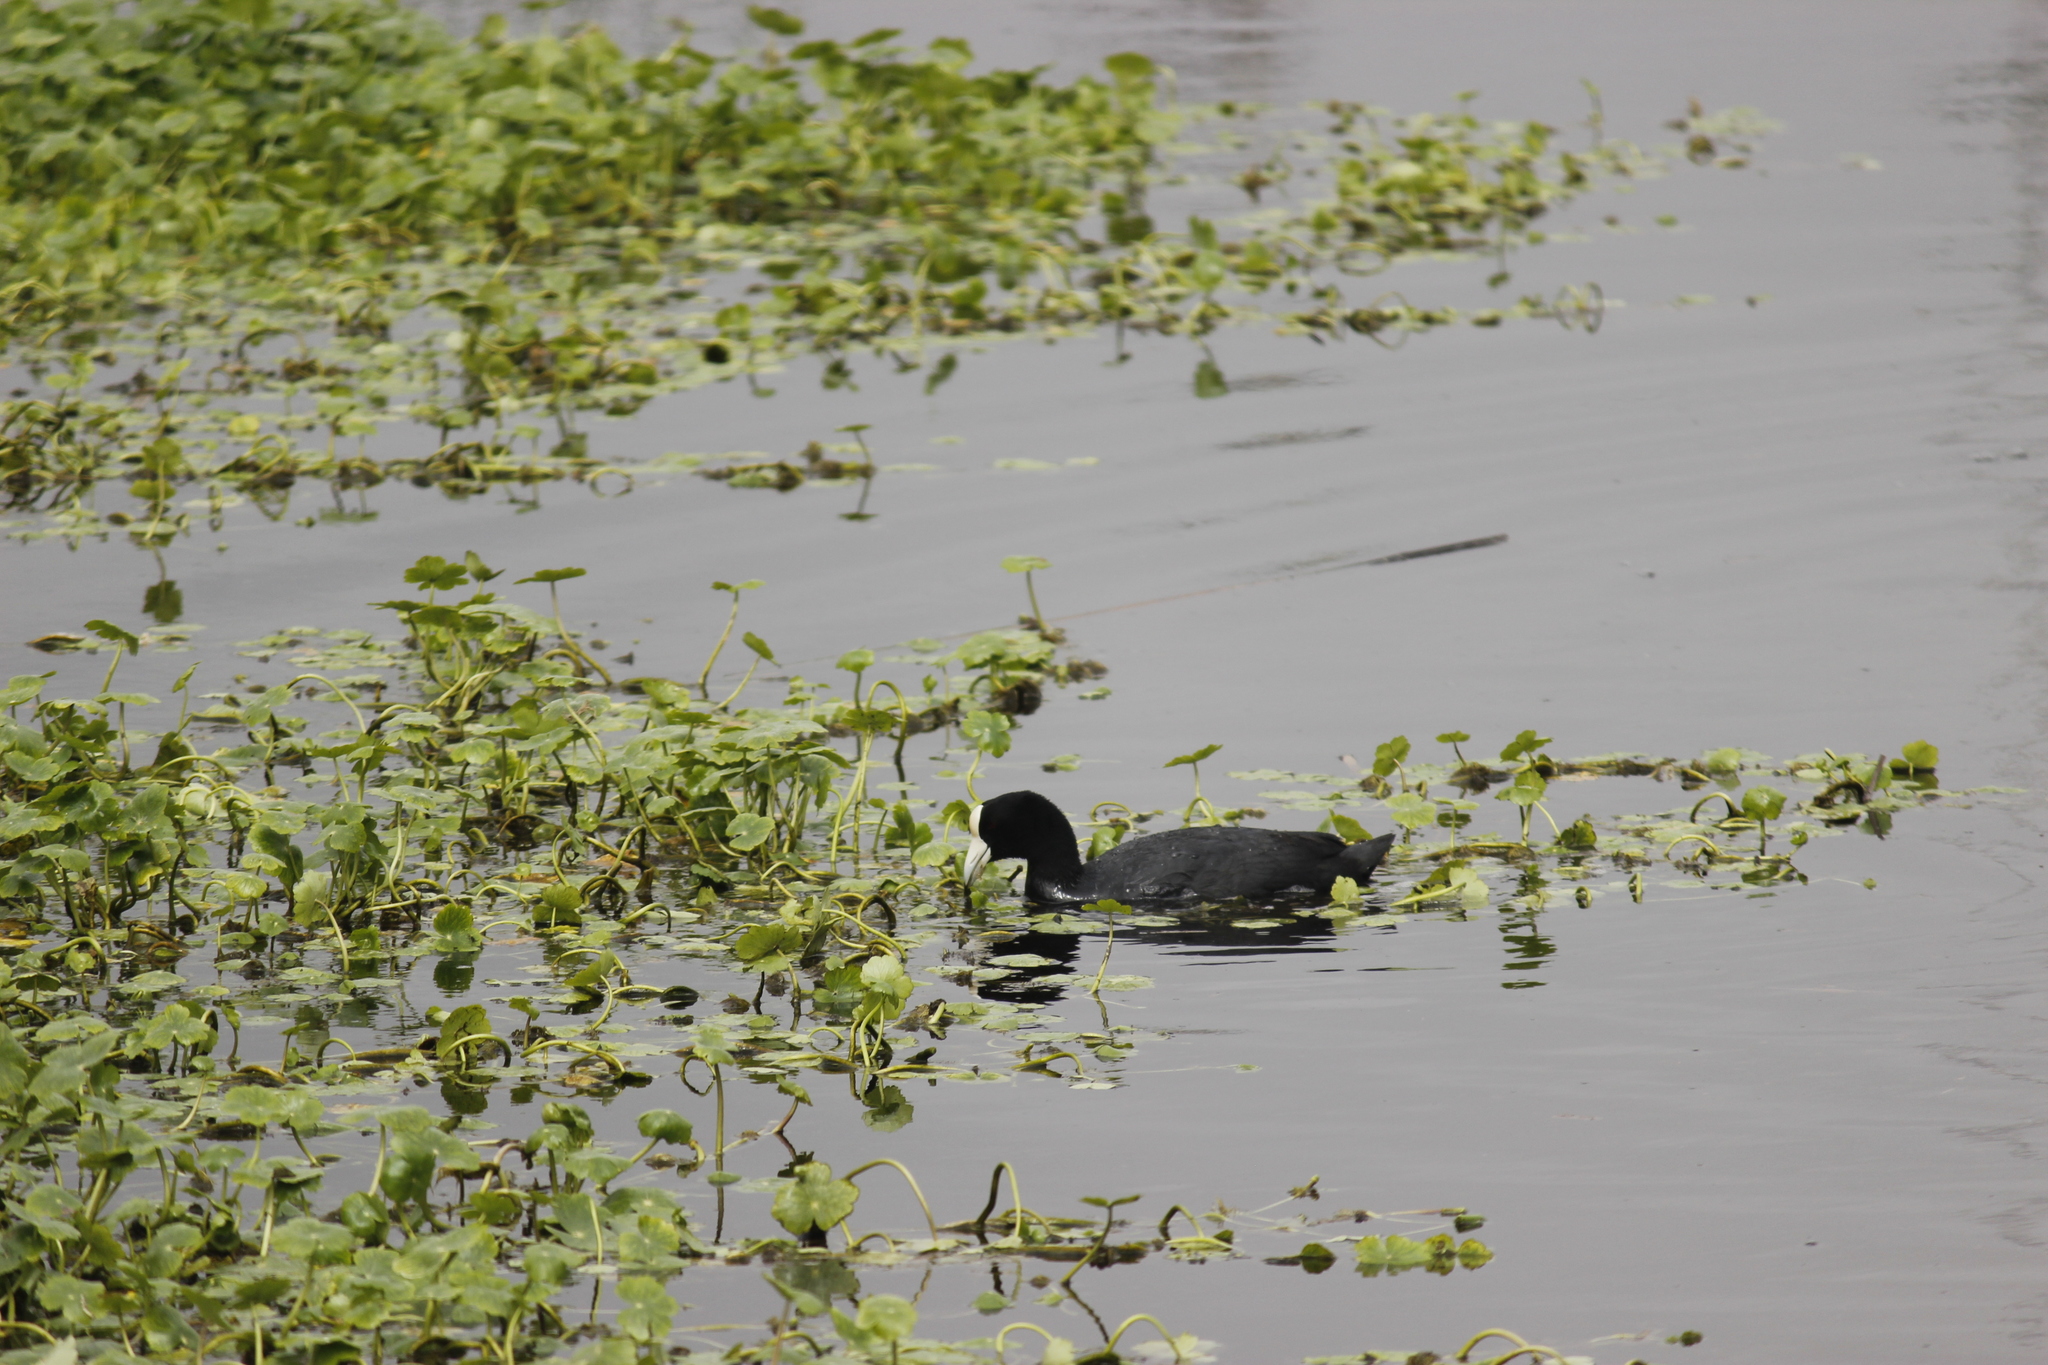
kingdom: Animalia
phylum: Chordata
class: Aves
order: Gruiformes
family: Rallidae
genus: Fulica
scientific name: Fulica ardesiaca
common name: Andean coot
